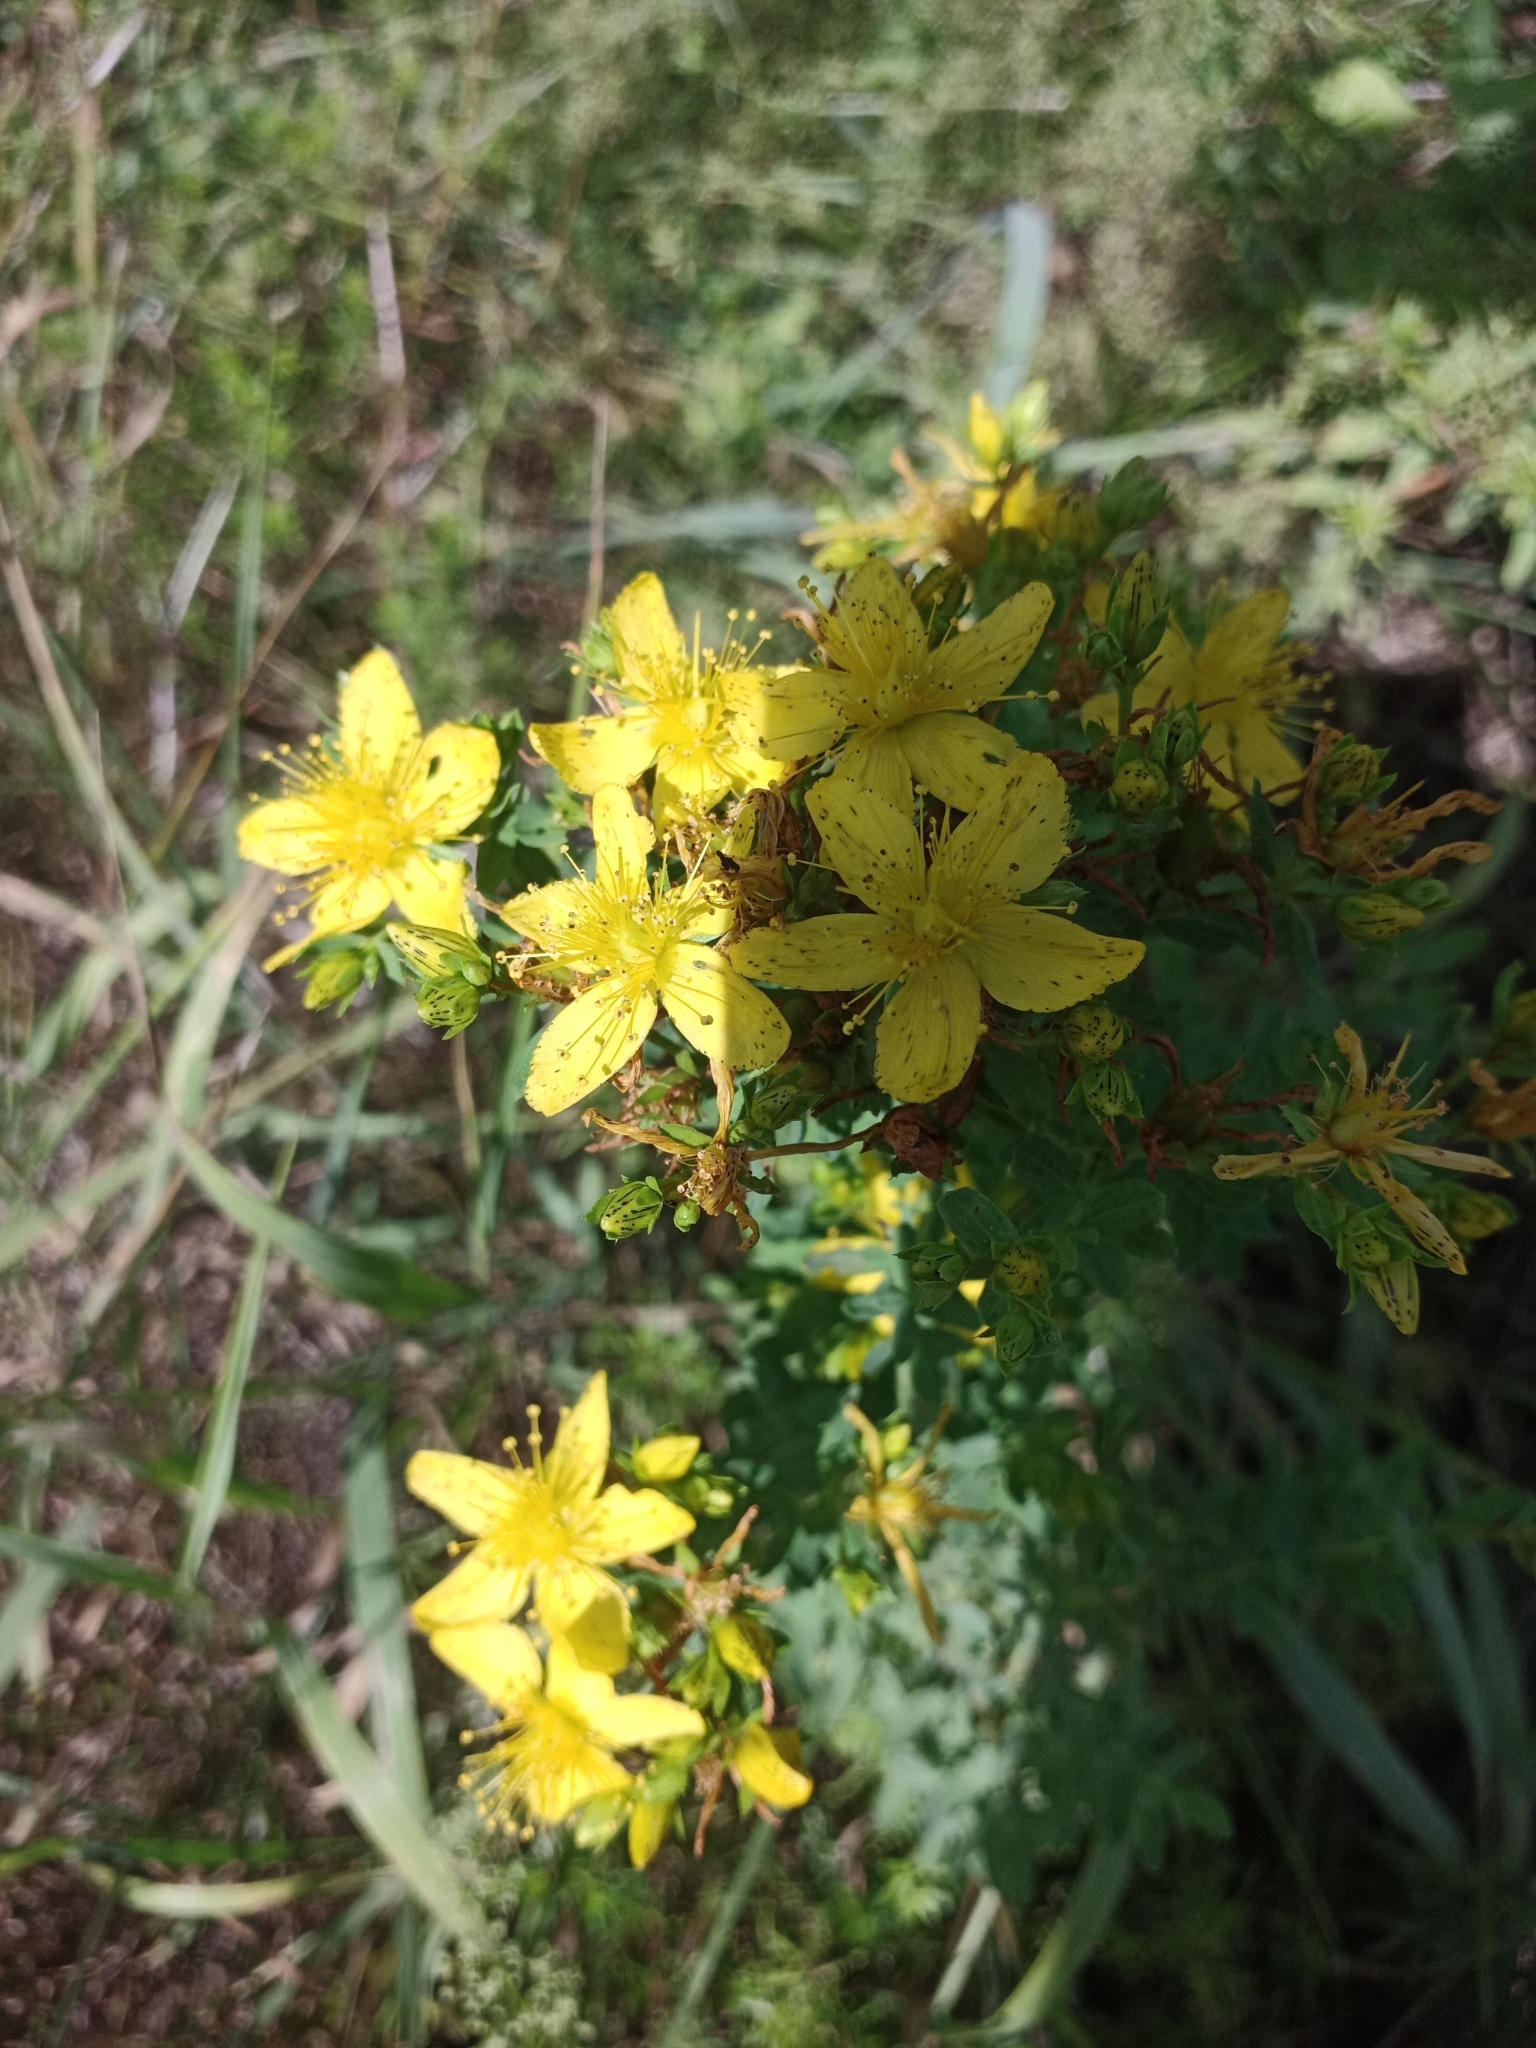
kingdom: Plantae
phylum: Tracheophyta
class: Magnoliopsida
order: Malpighiales
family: Hypericaceae
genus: Hypericum
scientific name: Hypericum perforatum
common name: Common st. johnswort
